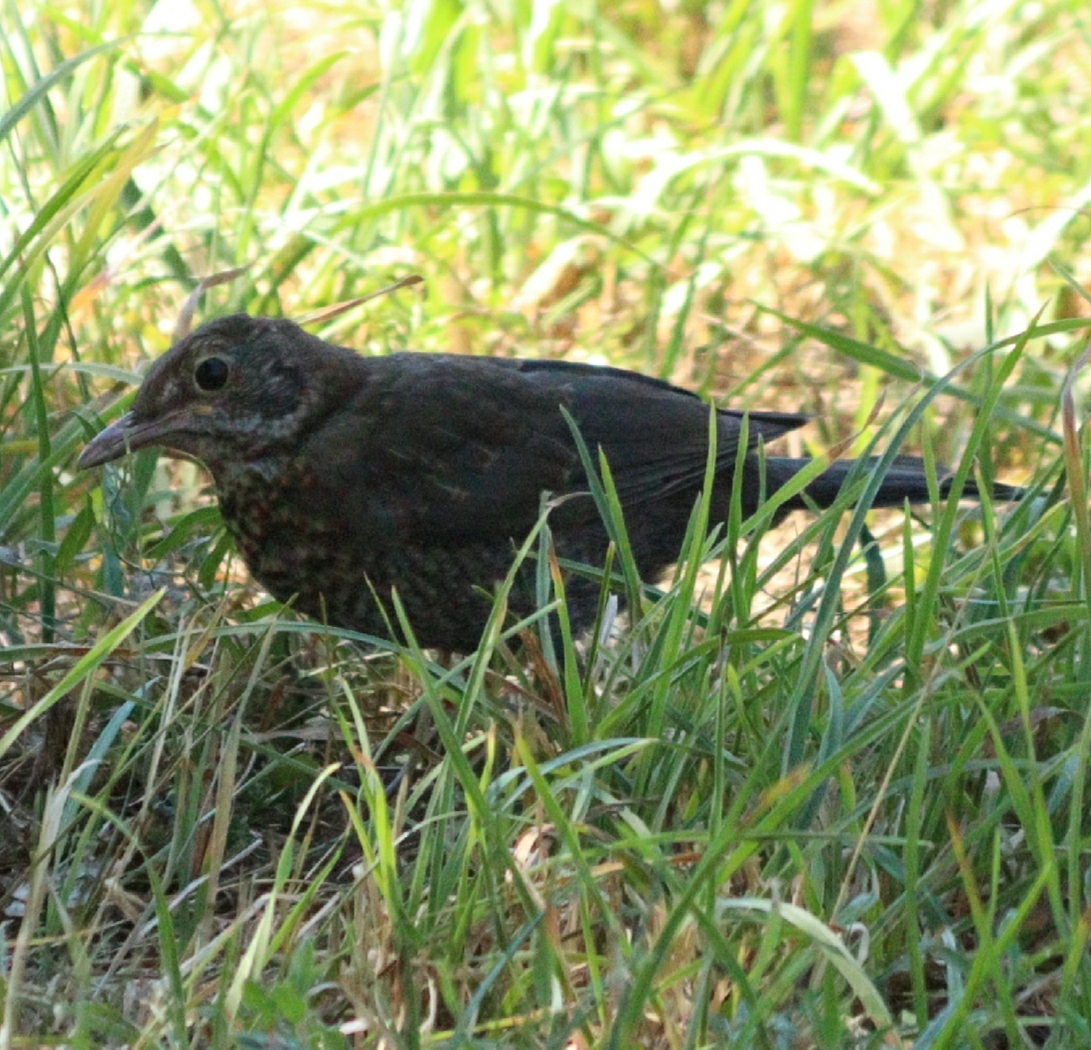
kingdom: Animalia
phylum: Chordata
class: Aves
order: Passeriformes
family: Turdidae
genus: Turdus
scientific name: Turdus merula
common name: Common blackbird
